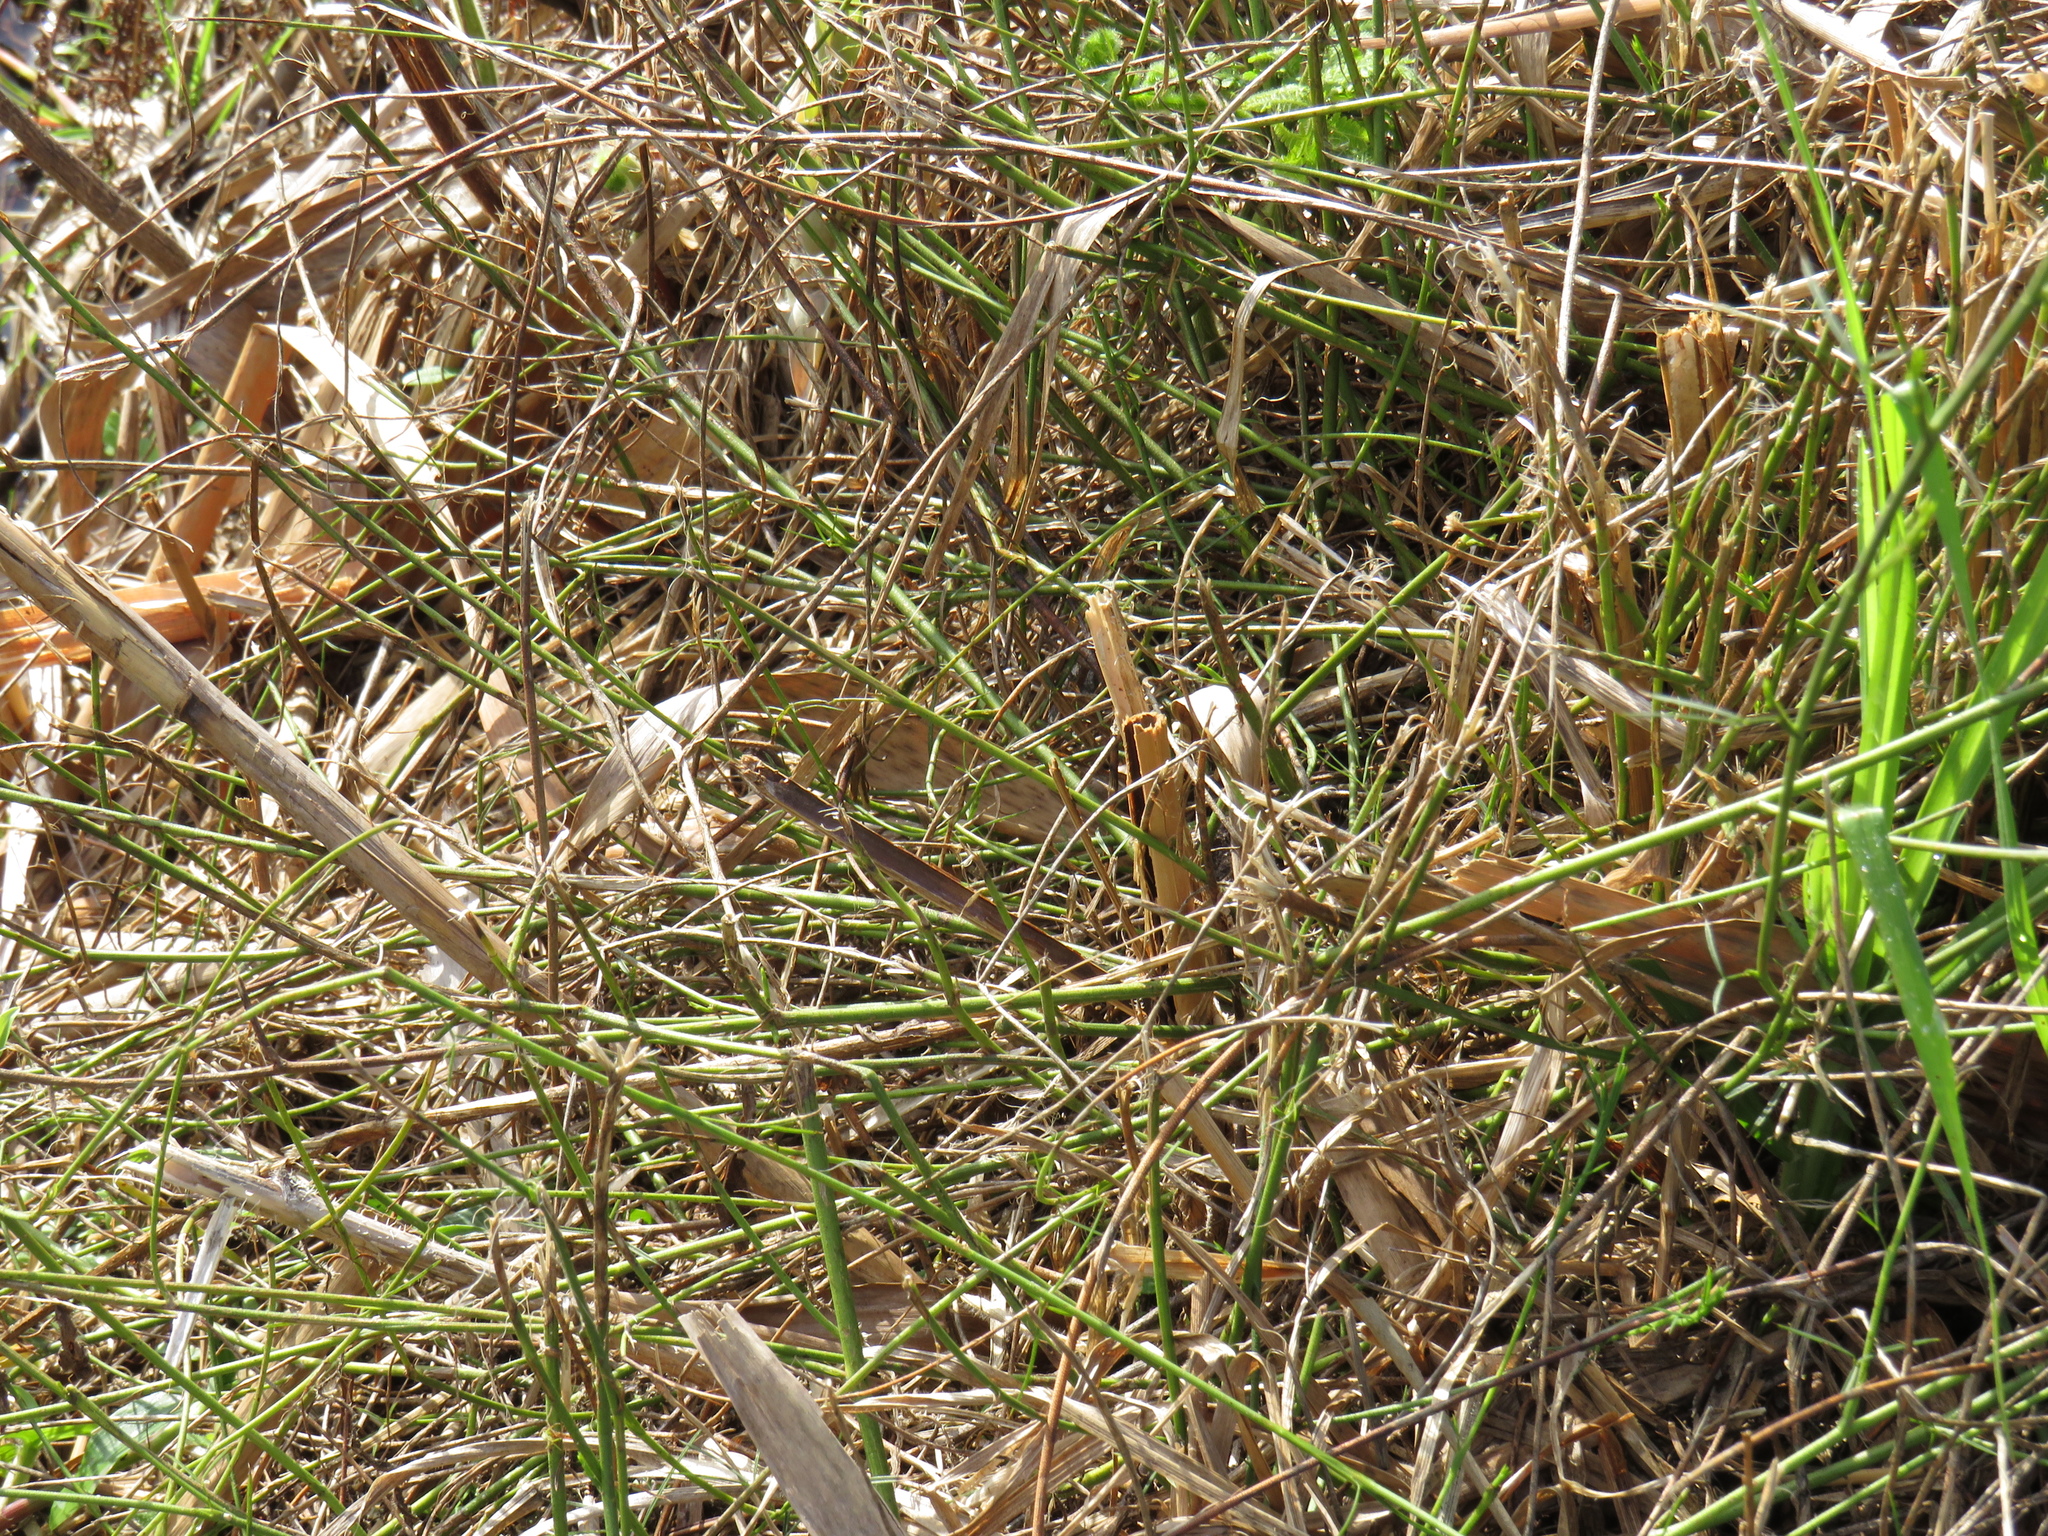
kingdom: Plantae
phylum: Tracheophyta
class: Magnoliopsida
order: Fabales
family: Fabaceae
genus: Psoralea
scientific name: Psoralea fascicularis
